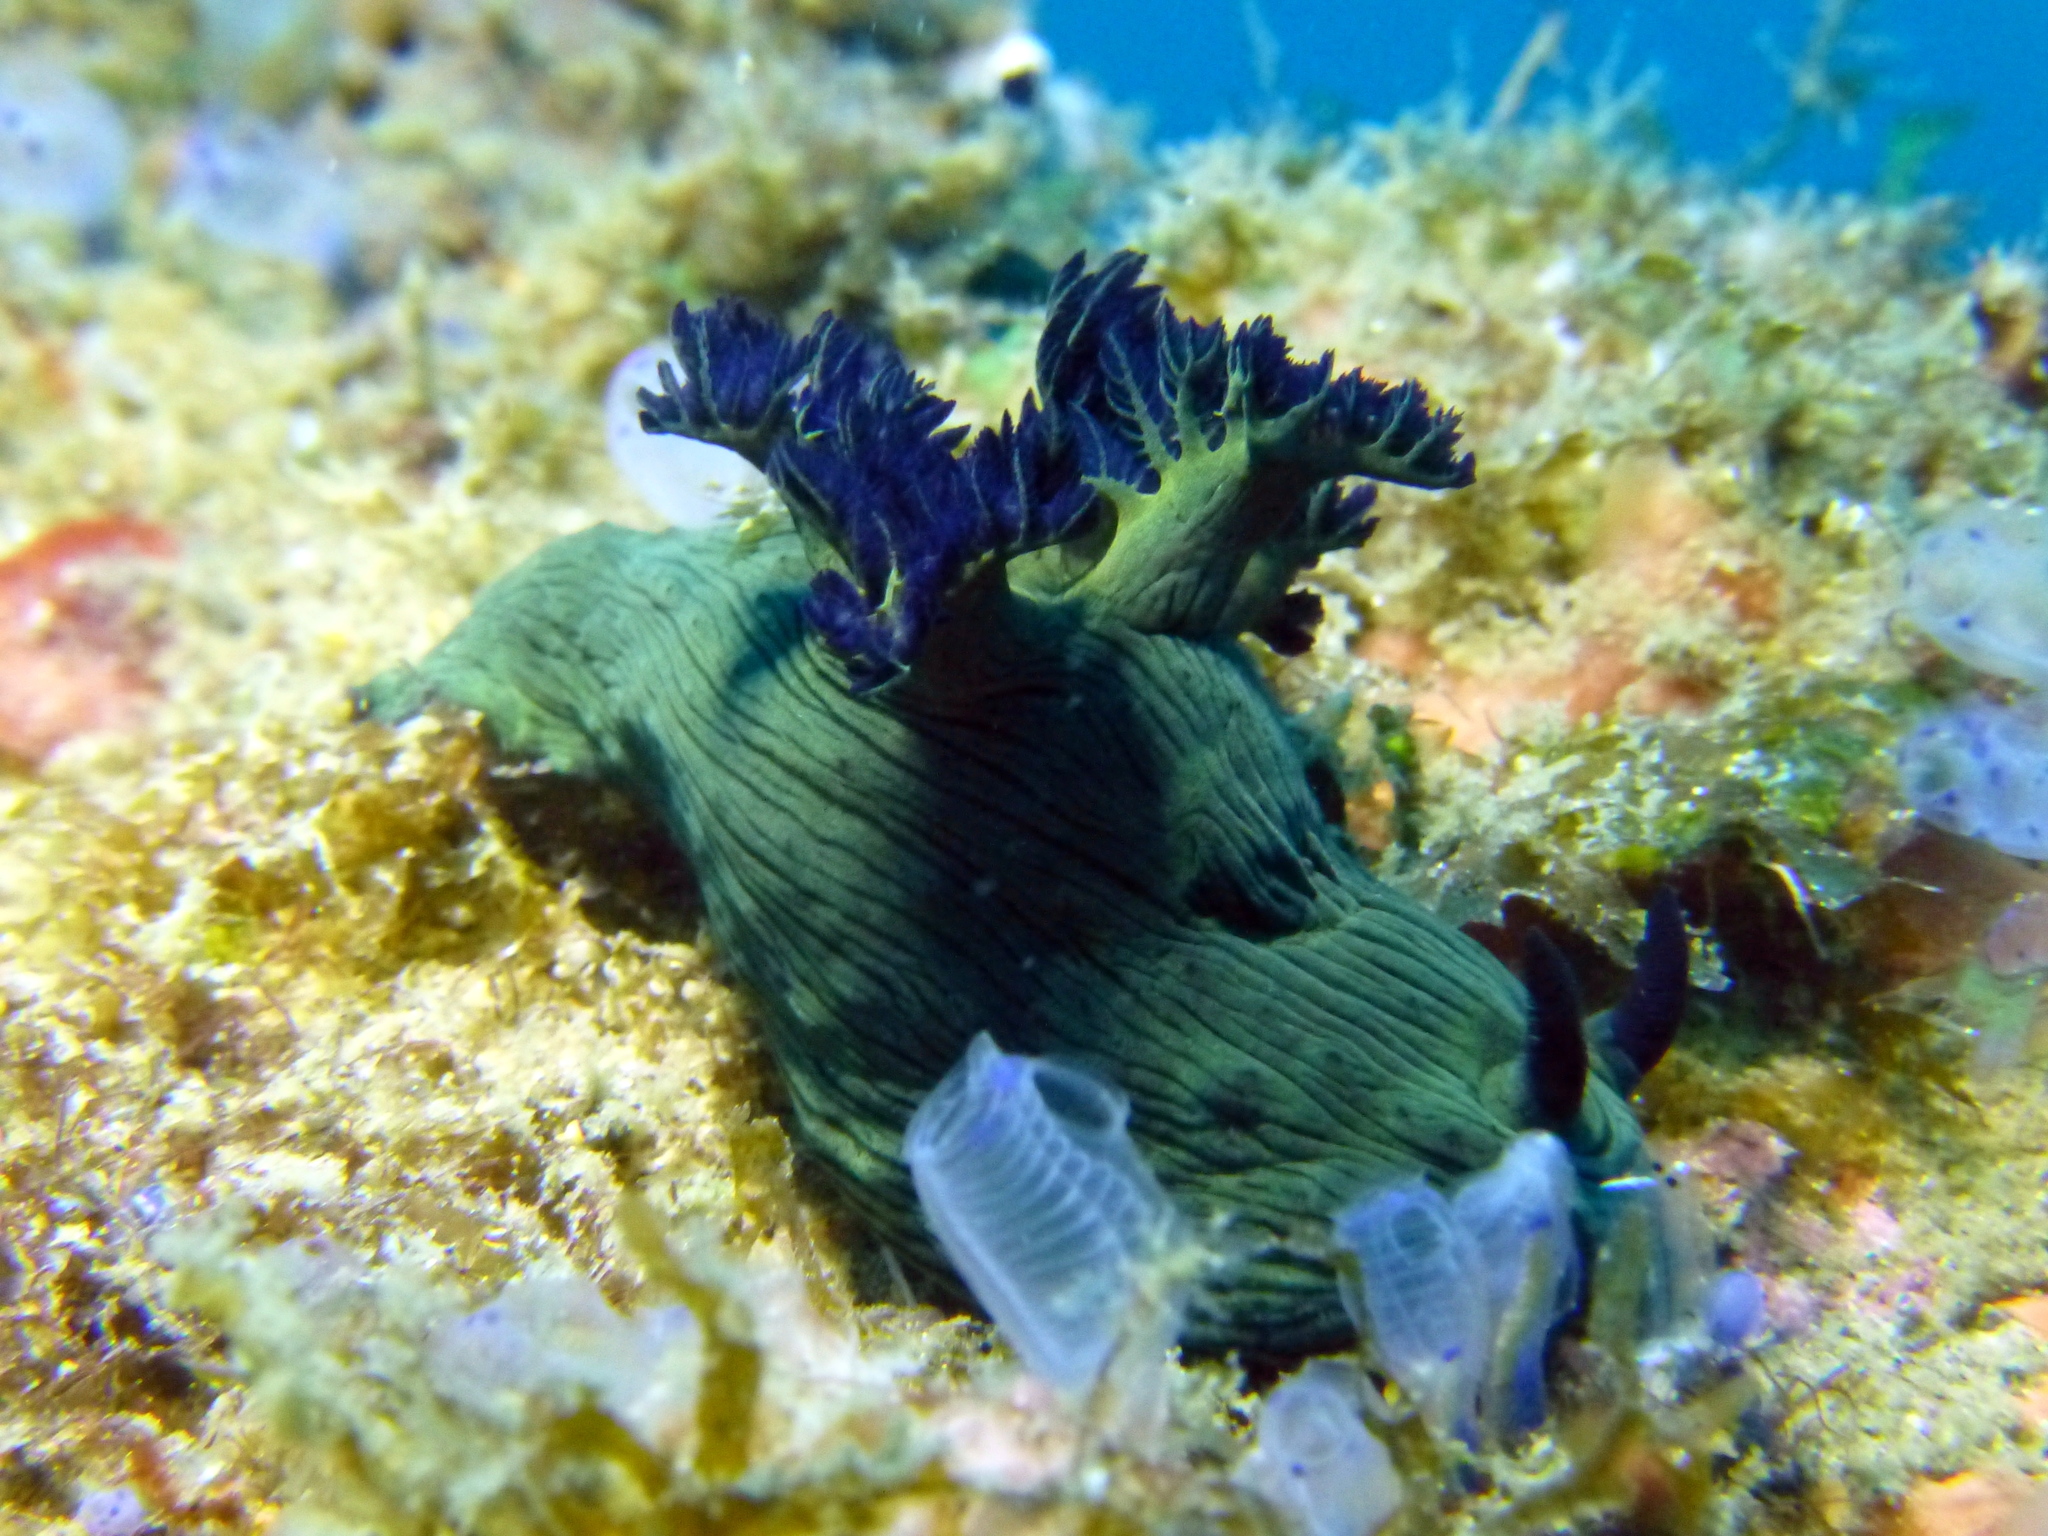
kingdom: Animalia
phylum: Mollusca
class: Gastropoda
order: Nudibranchia
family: Polyceridae
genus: Nembrotha
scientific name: Nembrotha milleri
